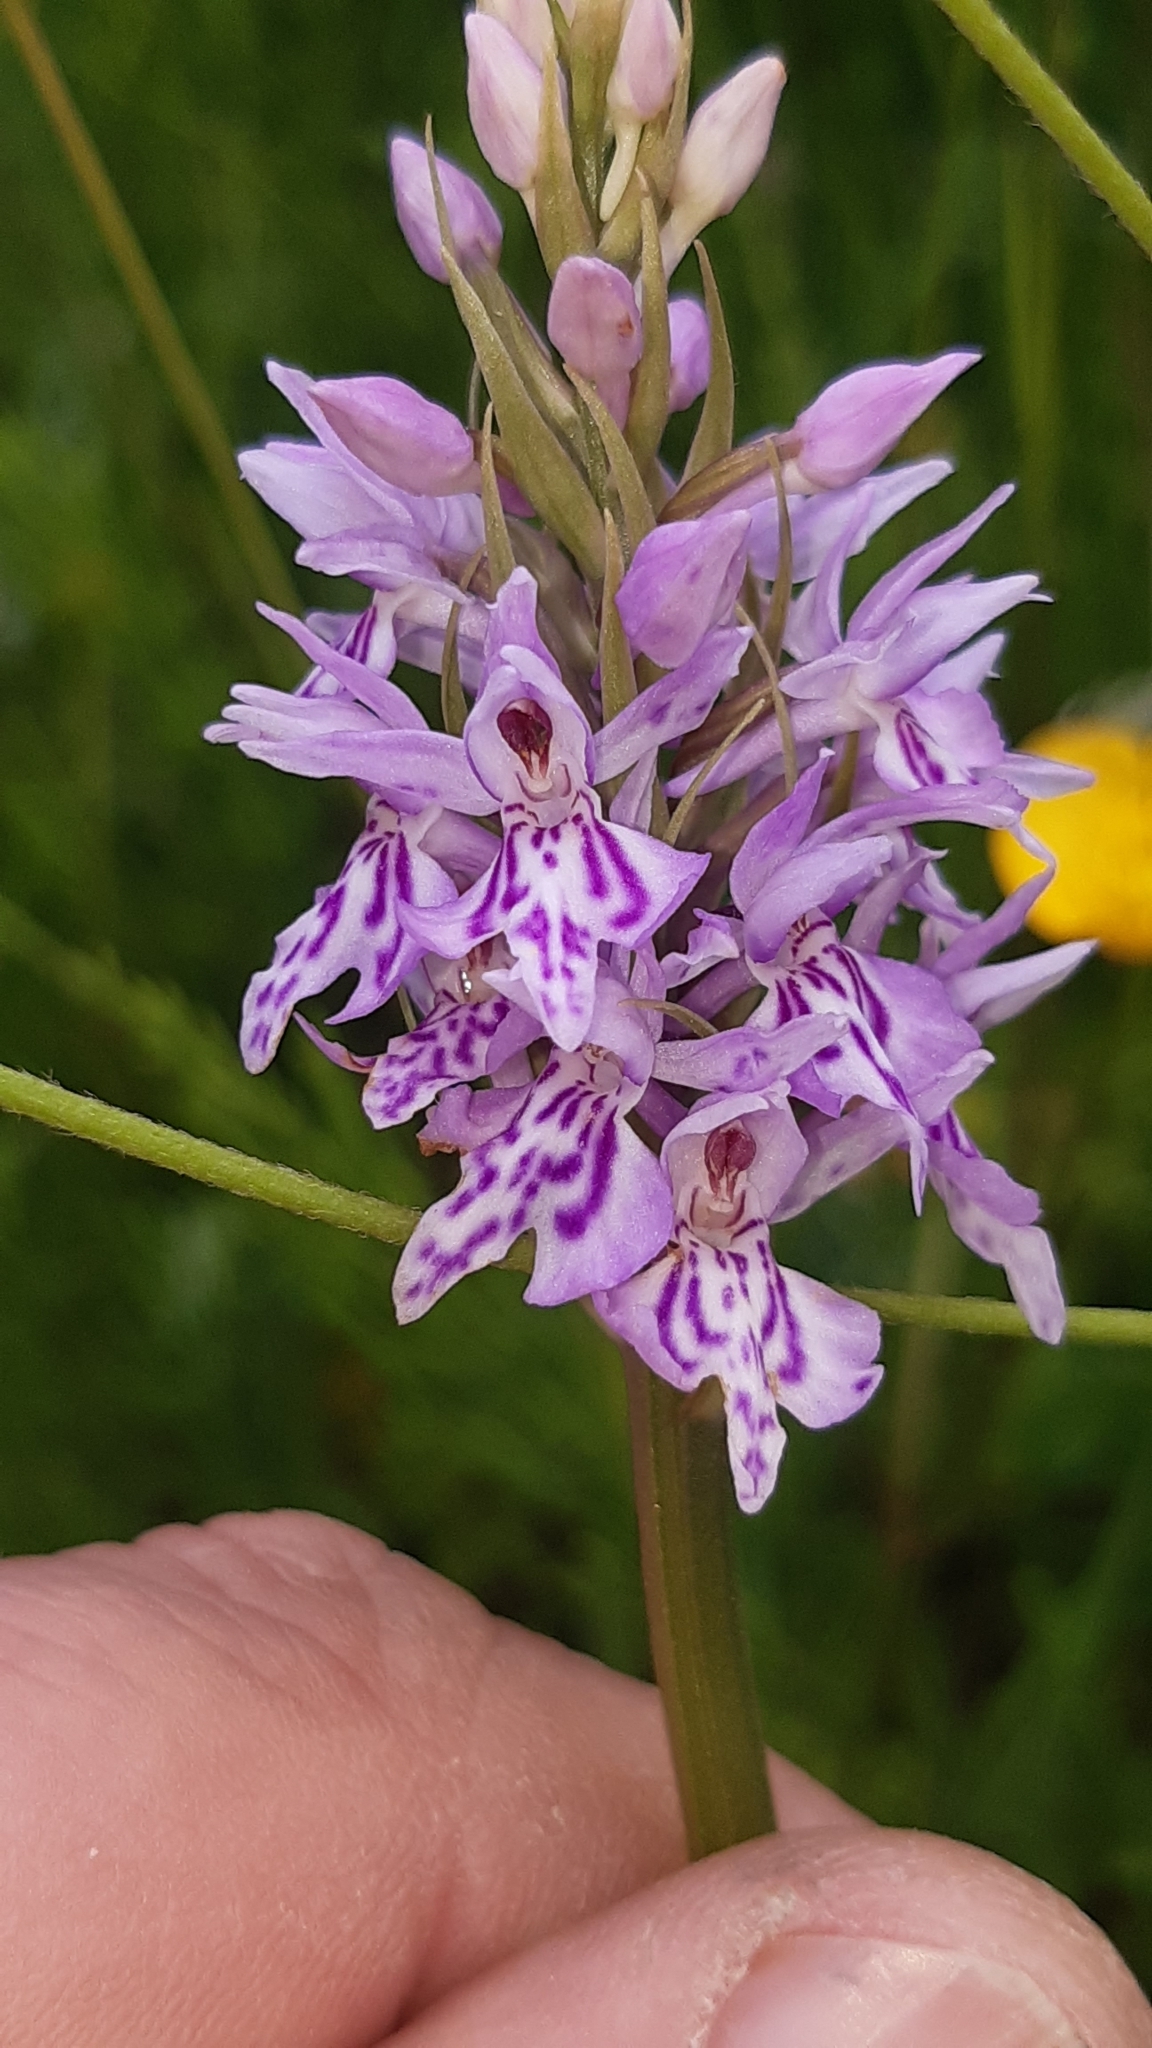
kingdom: Plantae
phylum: Tracheophyta
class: Liliopsida
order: Asparagales
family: Orchidaceae
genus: Dactylorhiza
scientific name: Dactylorhiza maculata
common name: Heath spotted-orchid
